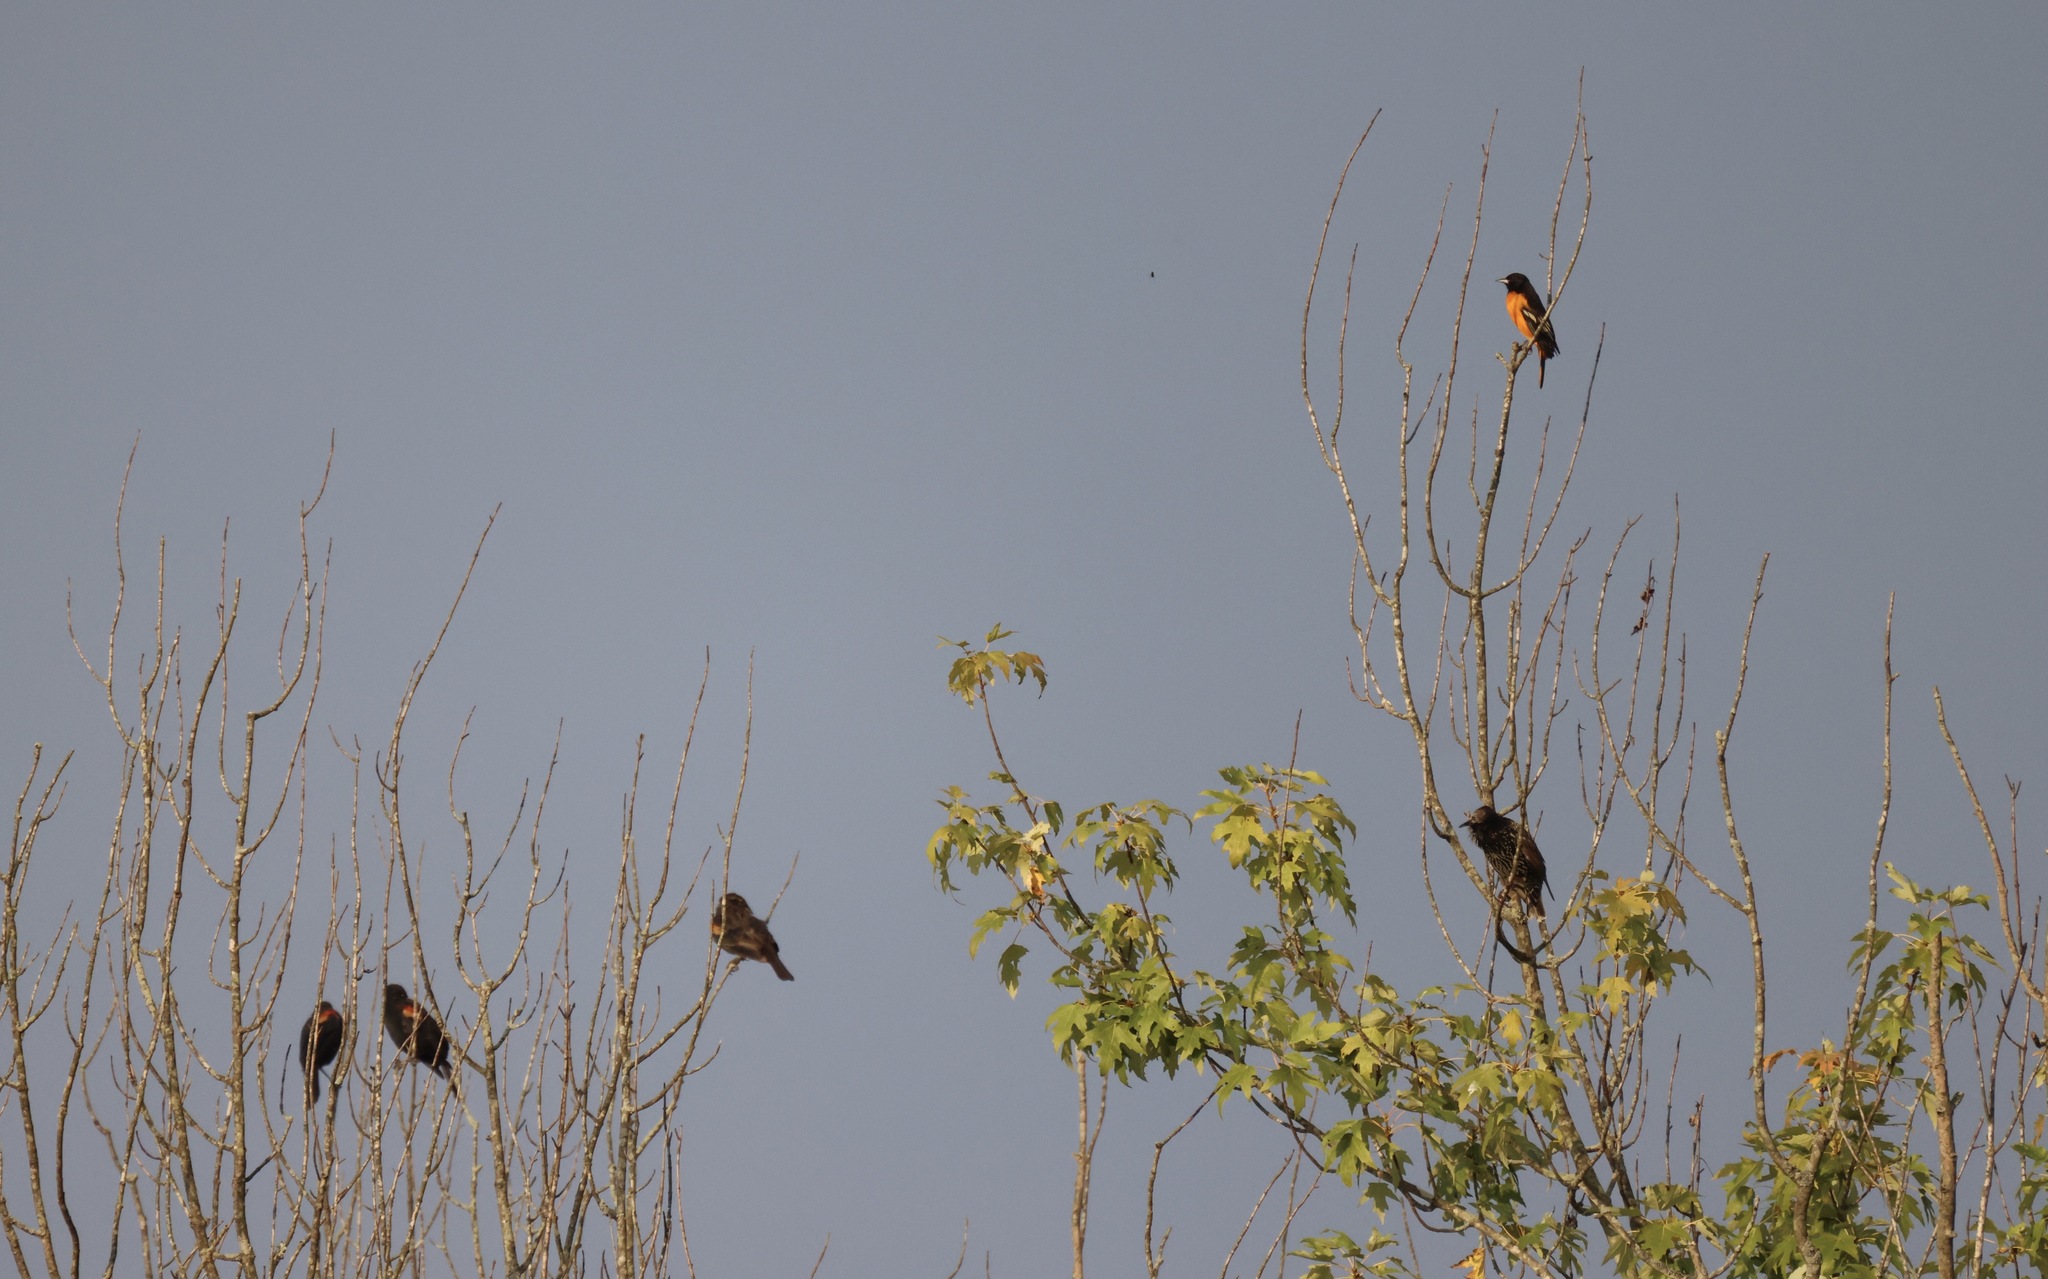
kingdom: Animalia
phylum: Chordata
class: Aves
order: Passeriformes
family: Sturnidae
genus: Sturnus
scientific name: Sturnus vulgaris
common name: Common starling
